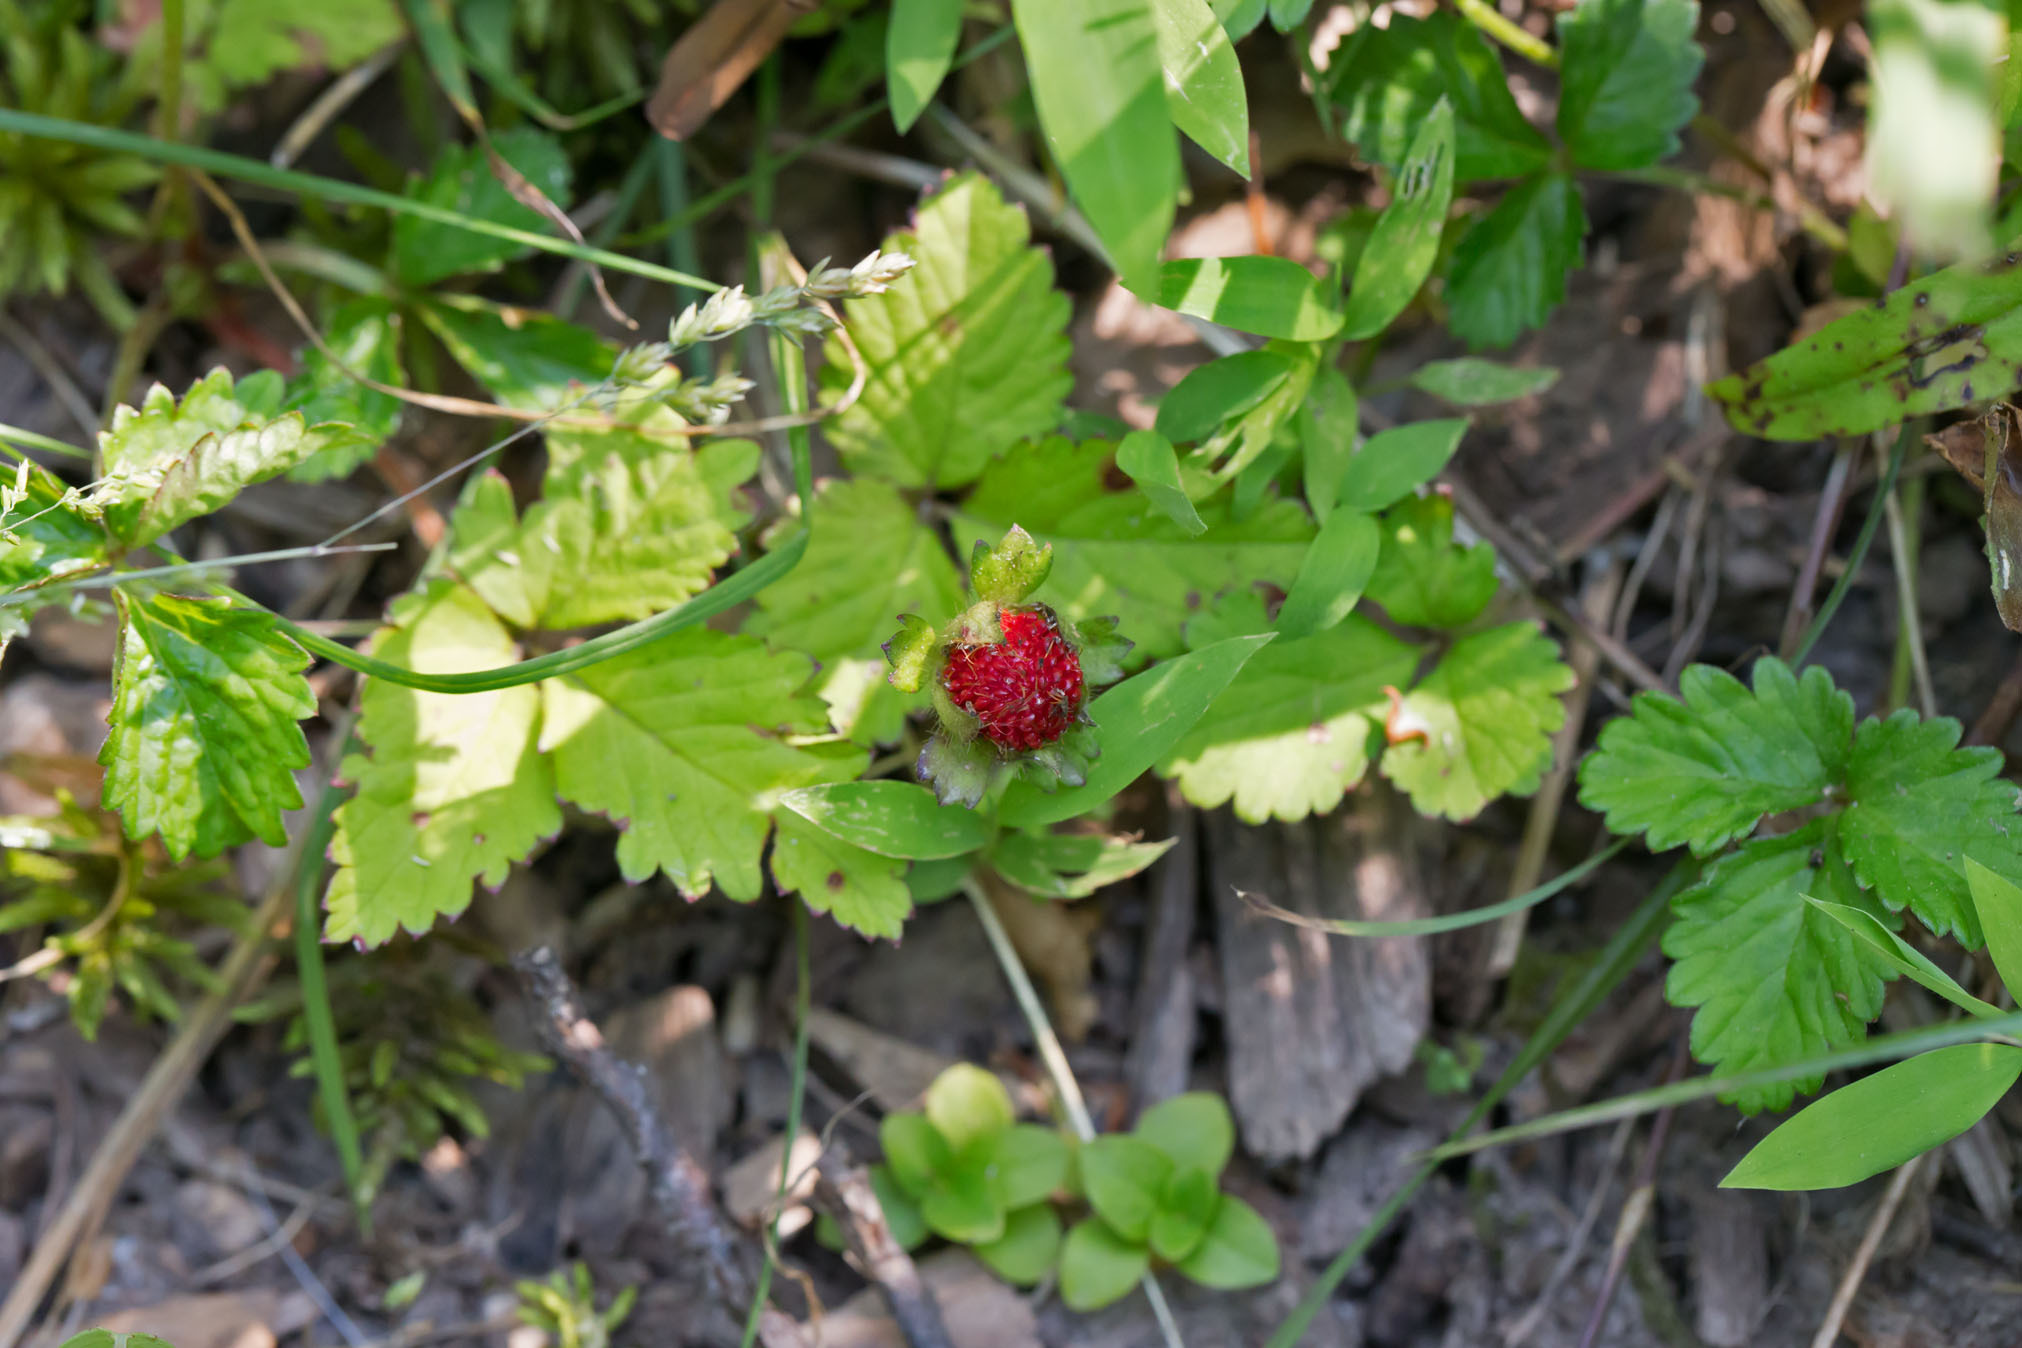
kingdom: Plantae
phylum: Tracheophyta
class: Magnoliopsida
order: Rosales
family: Rosaceae
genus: Potentilla
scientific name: Potentilla indica
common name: Yellow-flowered strawberry
